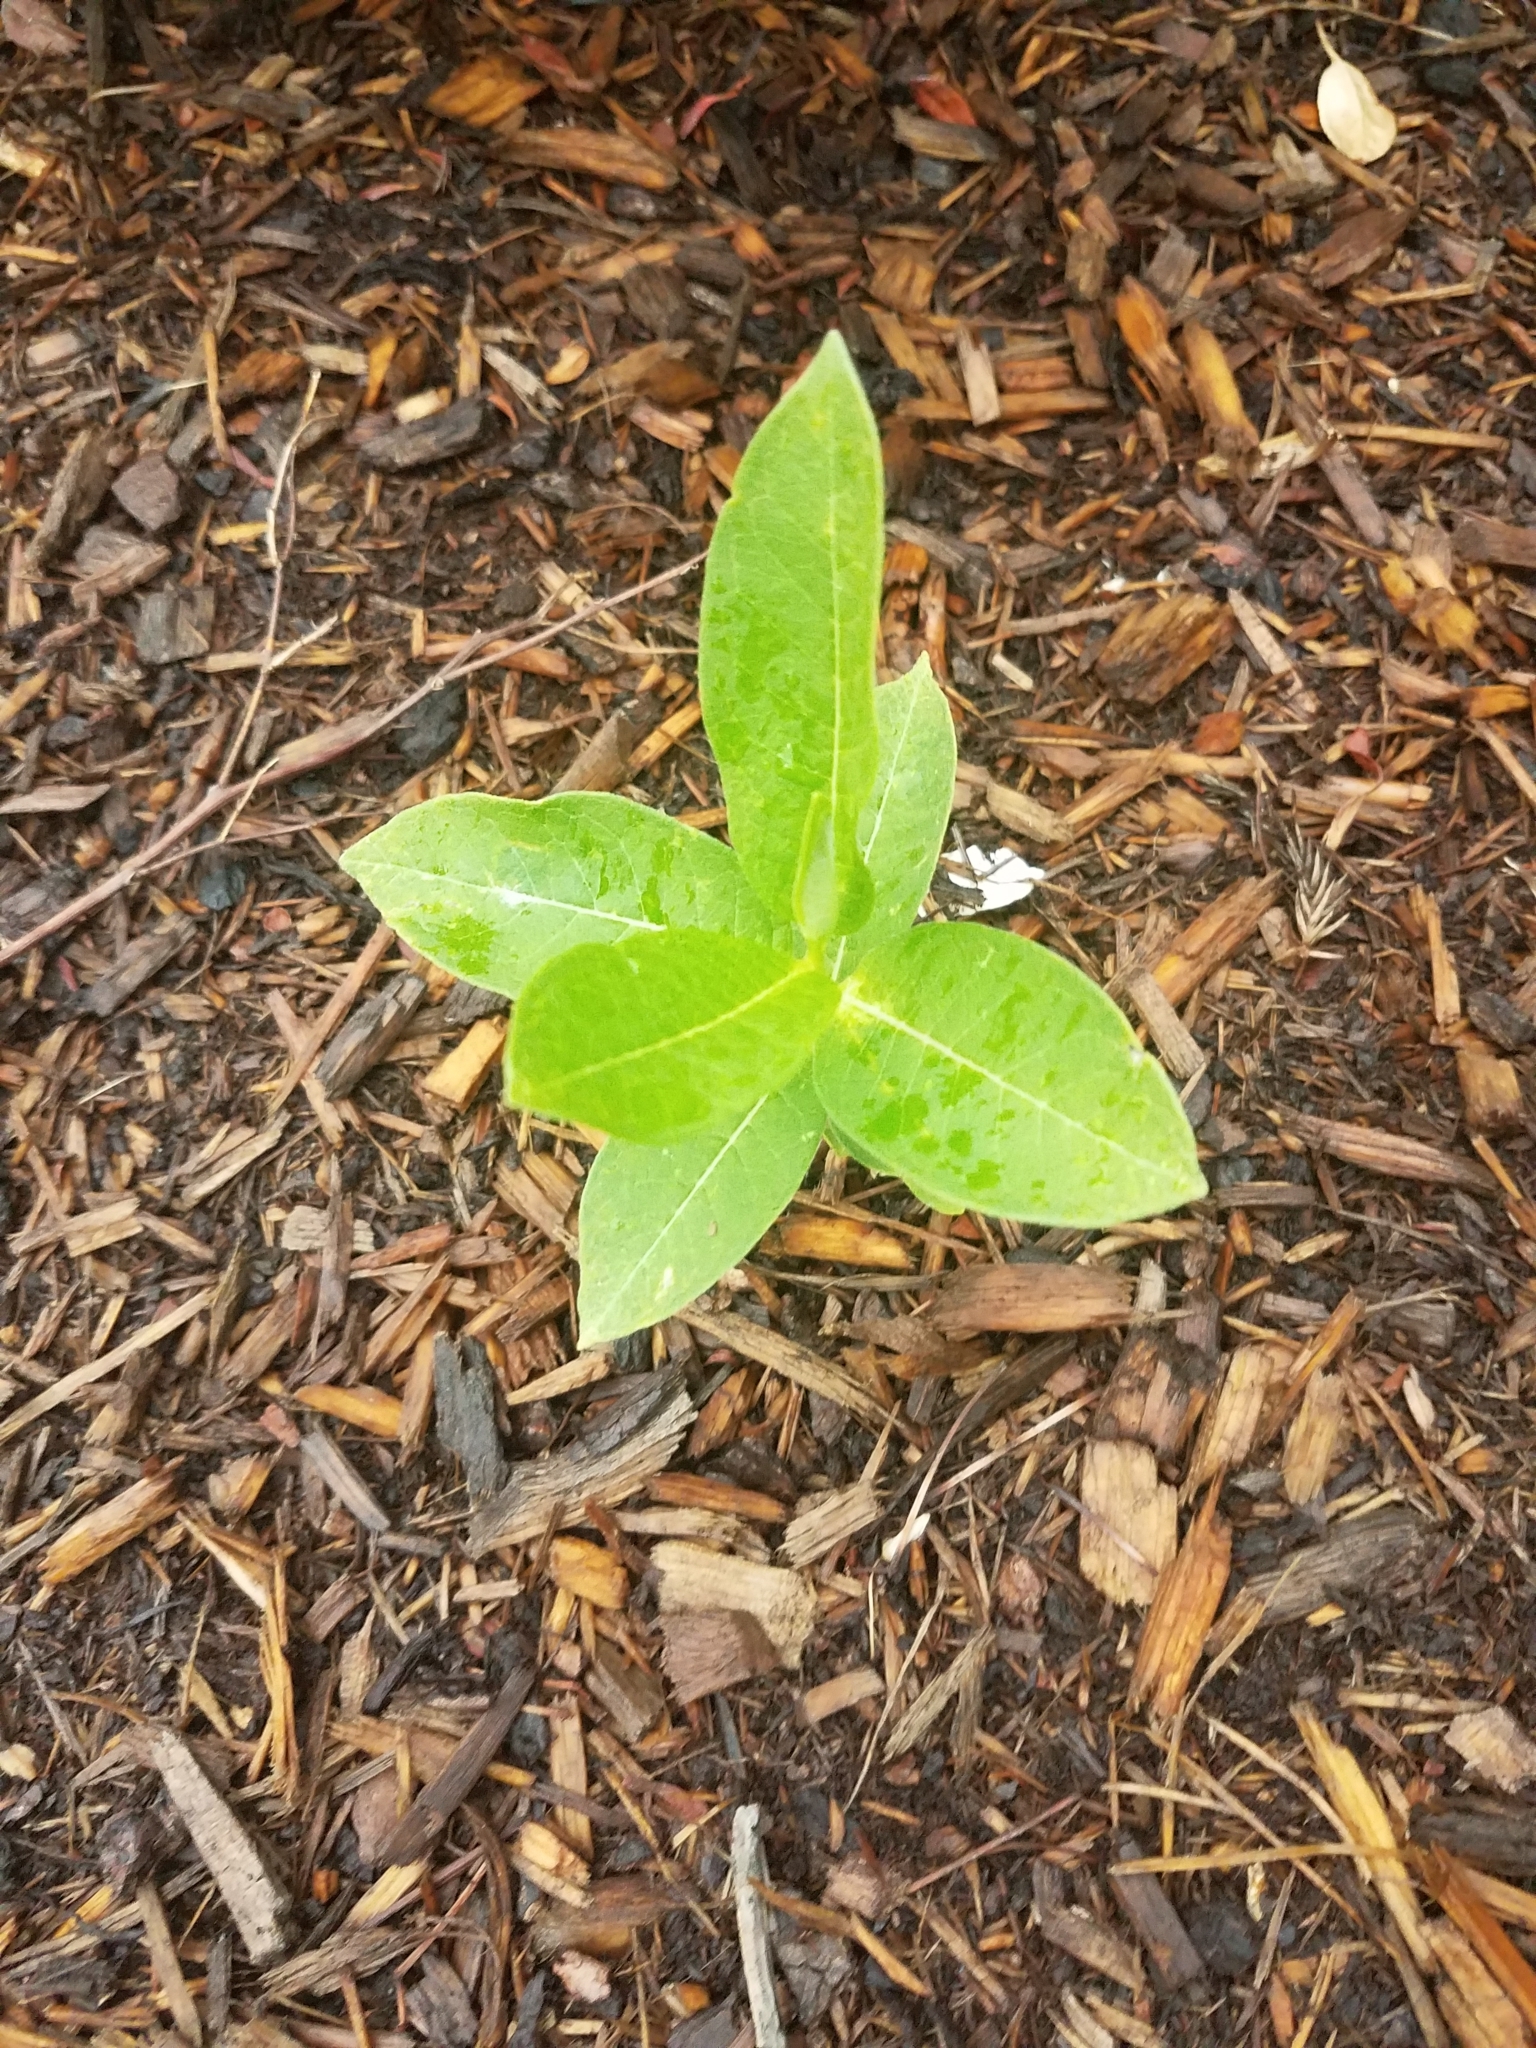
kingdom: Plantae
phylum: Tracheophyta
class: Magnoliopsida
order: Gentianales
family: Apocynaceae
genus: Asclepias
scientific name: Asclepias syriaca
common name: Common milkweed
